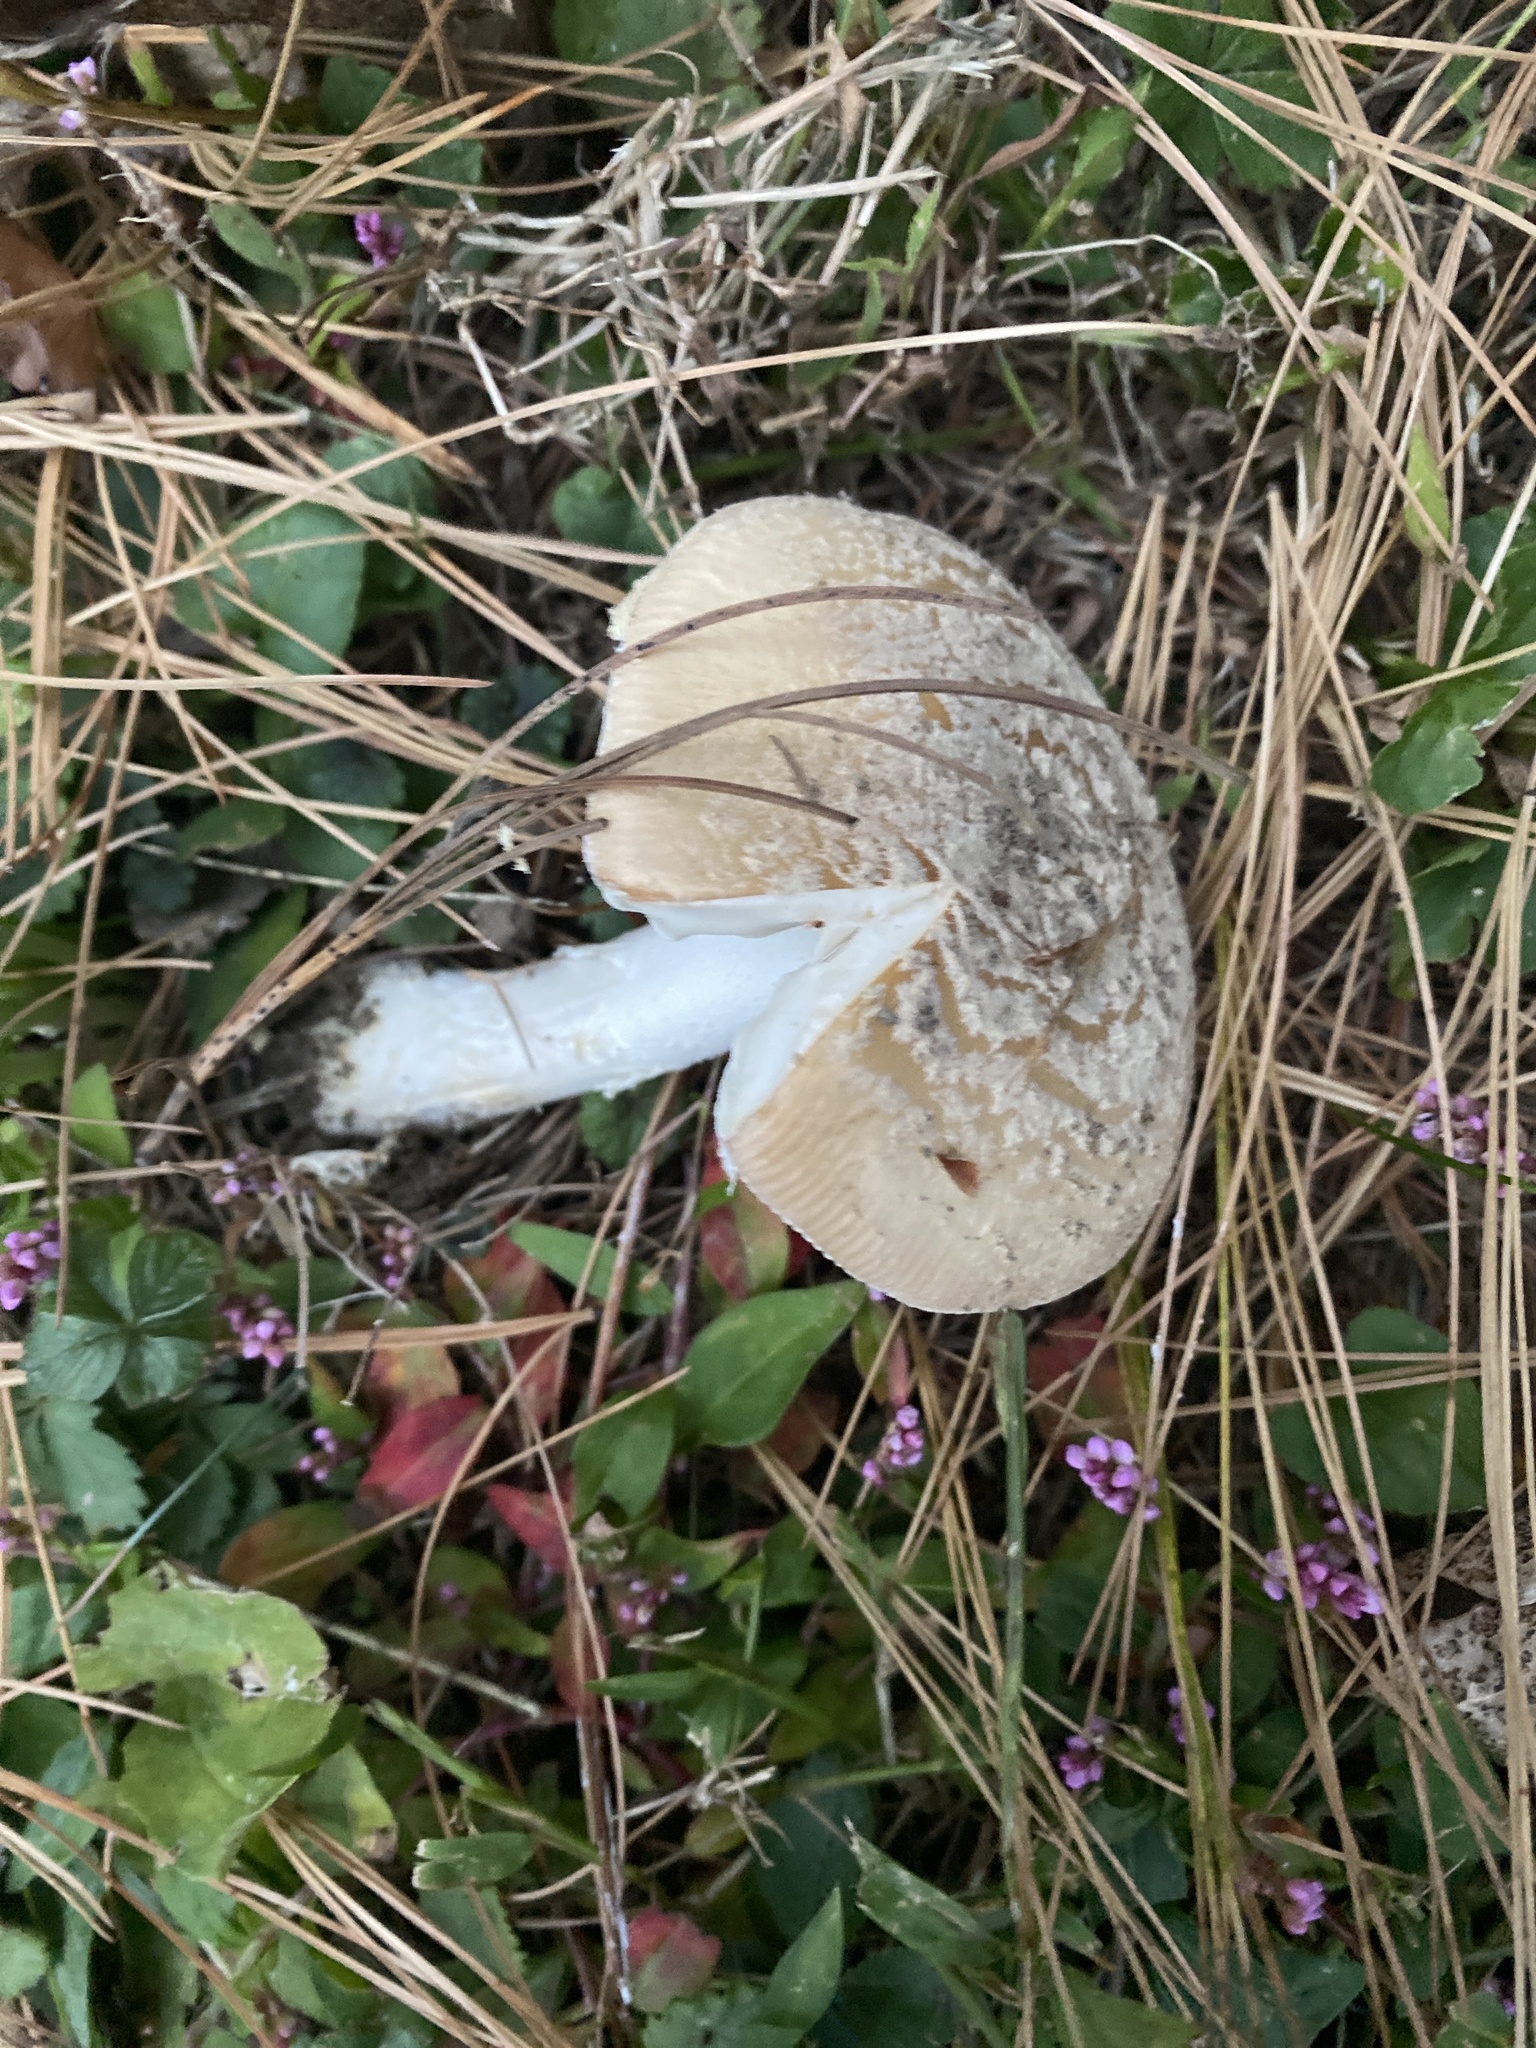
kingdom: Fungi
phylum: Basidiomycota
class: Agaricomycetes
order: Agaricales
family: Amanitaceae
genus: Amanita
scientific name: Amanita crenulata
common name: Poison champagne amanita
